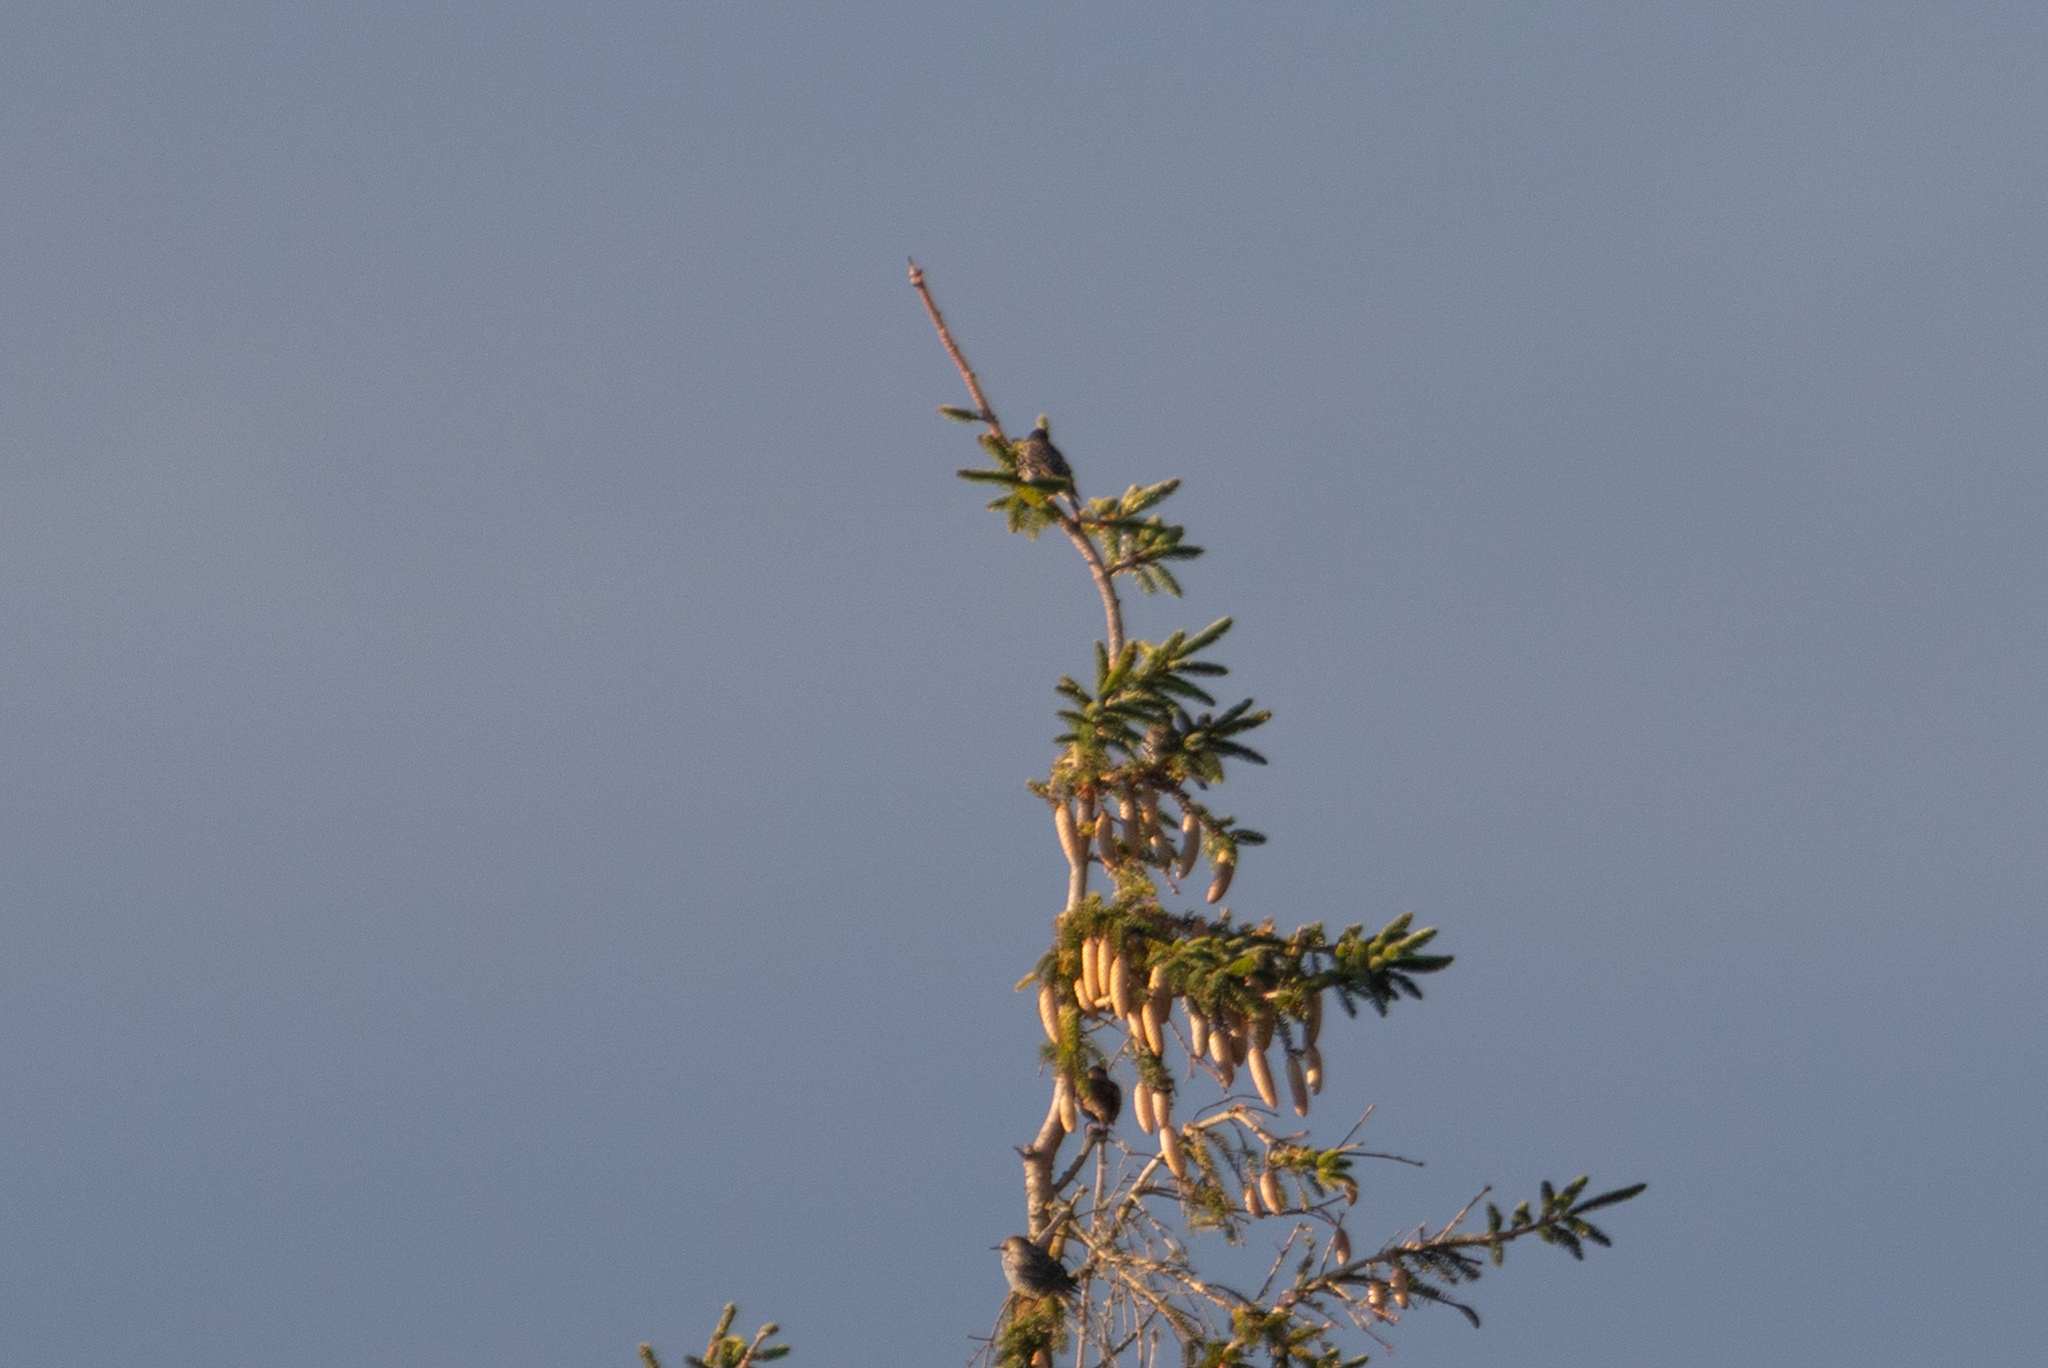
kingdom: Animalia
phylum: Chordata
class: Aves
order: Passeriformes
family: Sturnidae
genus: Sturnus
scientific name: Sturnus vulgaris
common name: Common starling
